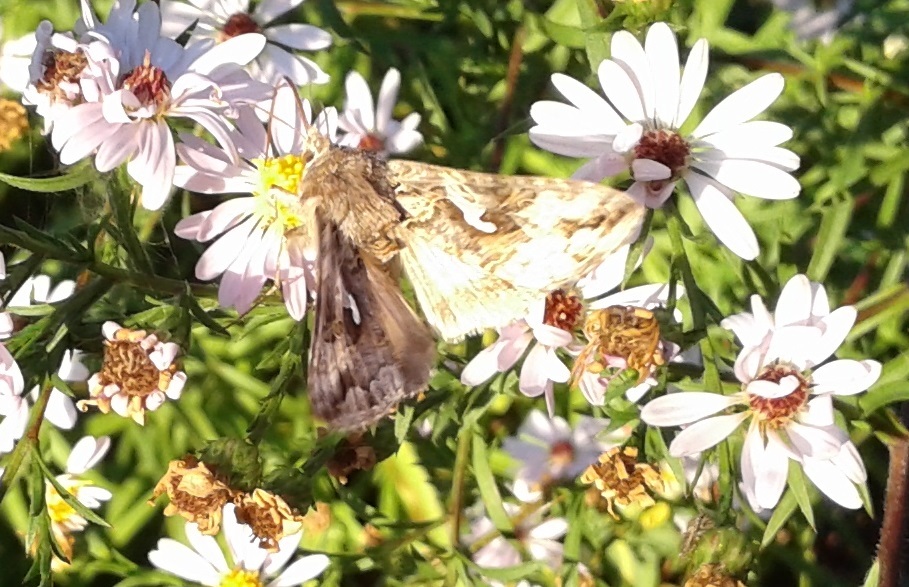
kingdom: Animalia
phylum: Arthropoda
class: Insecta
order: Lepidoptera
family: Noctuidae
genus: Autographa
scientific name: Autographa californica
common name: Alfalfa looper
